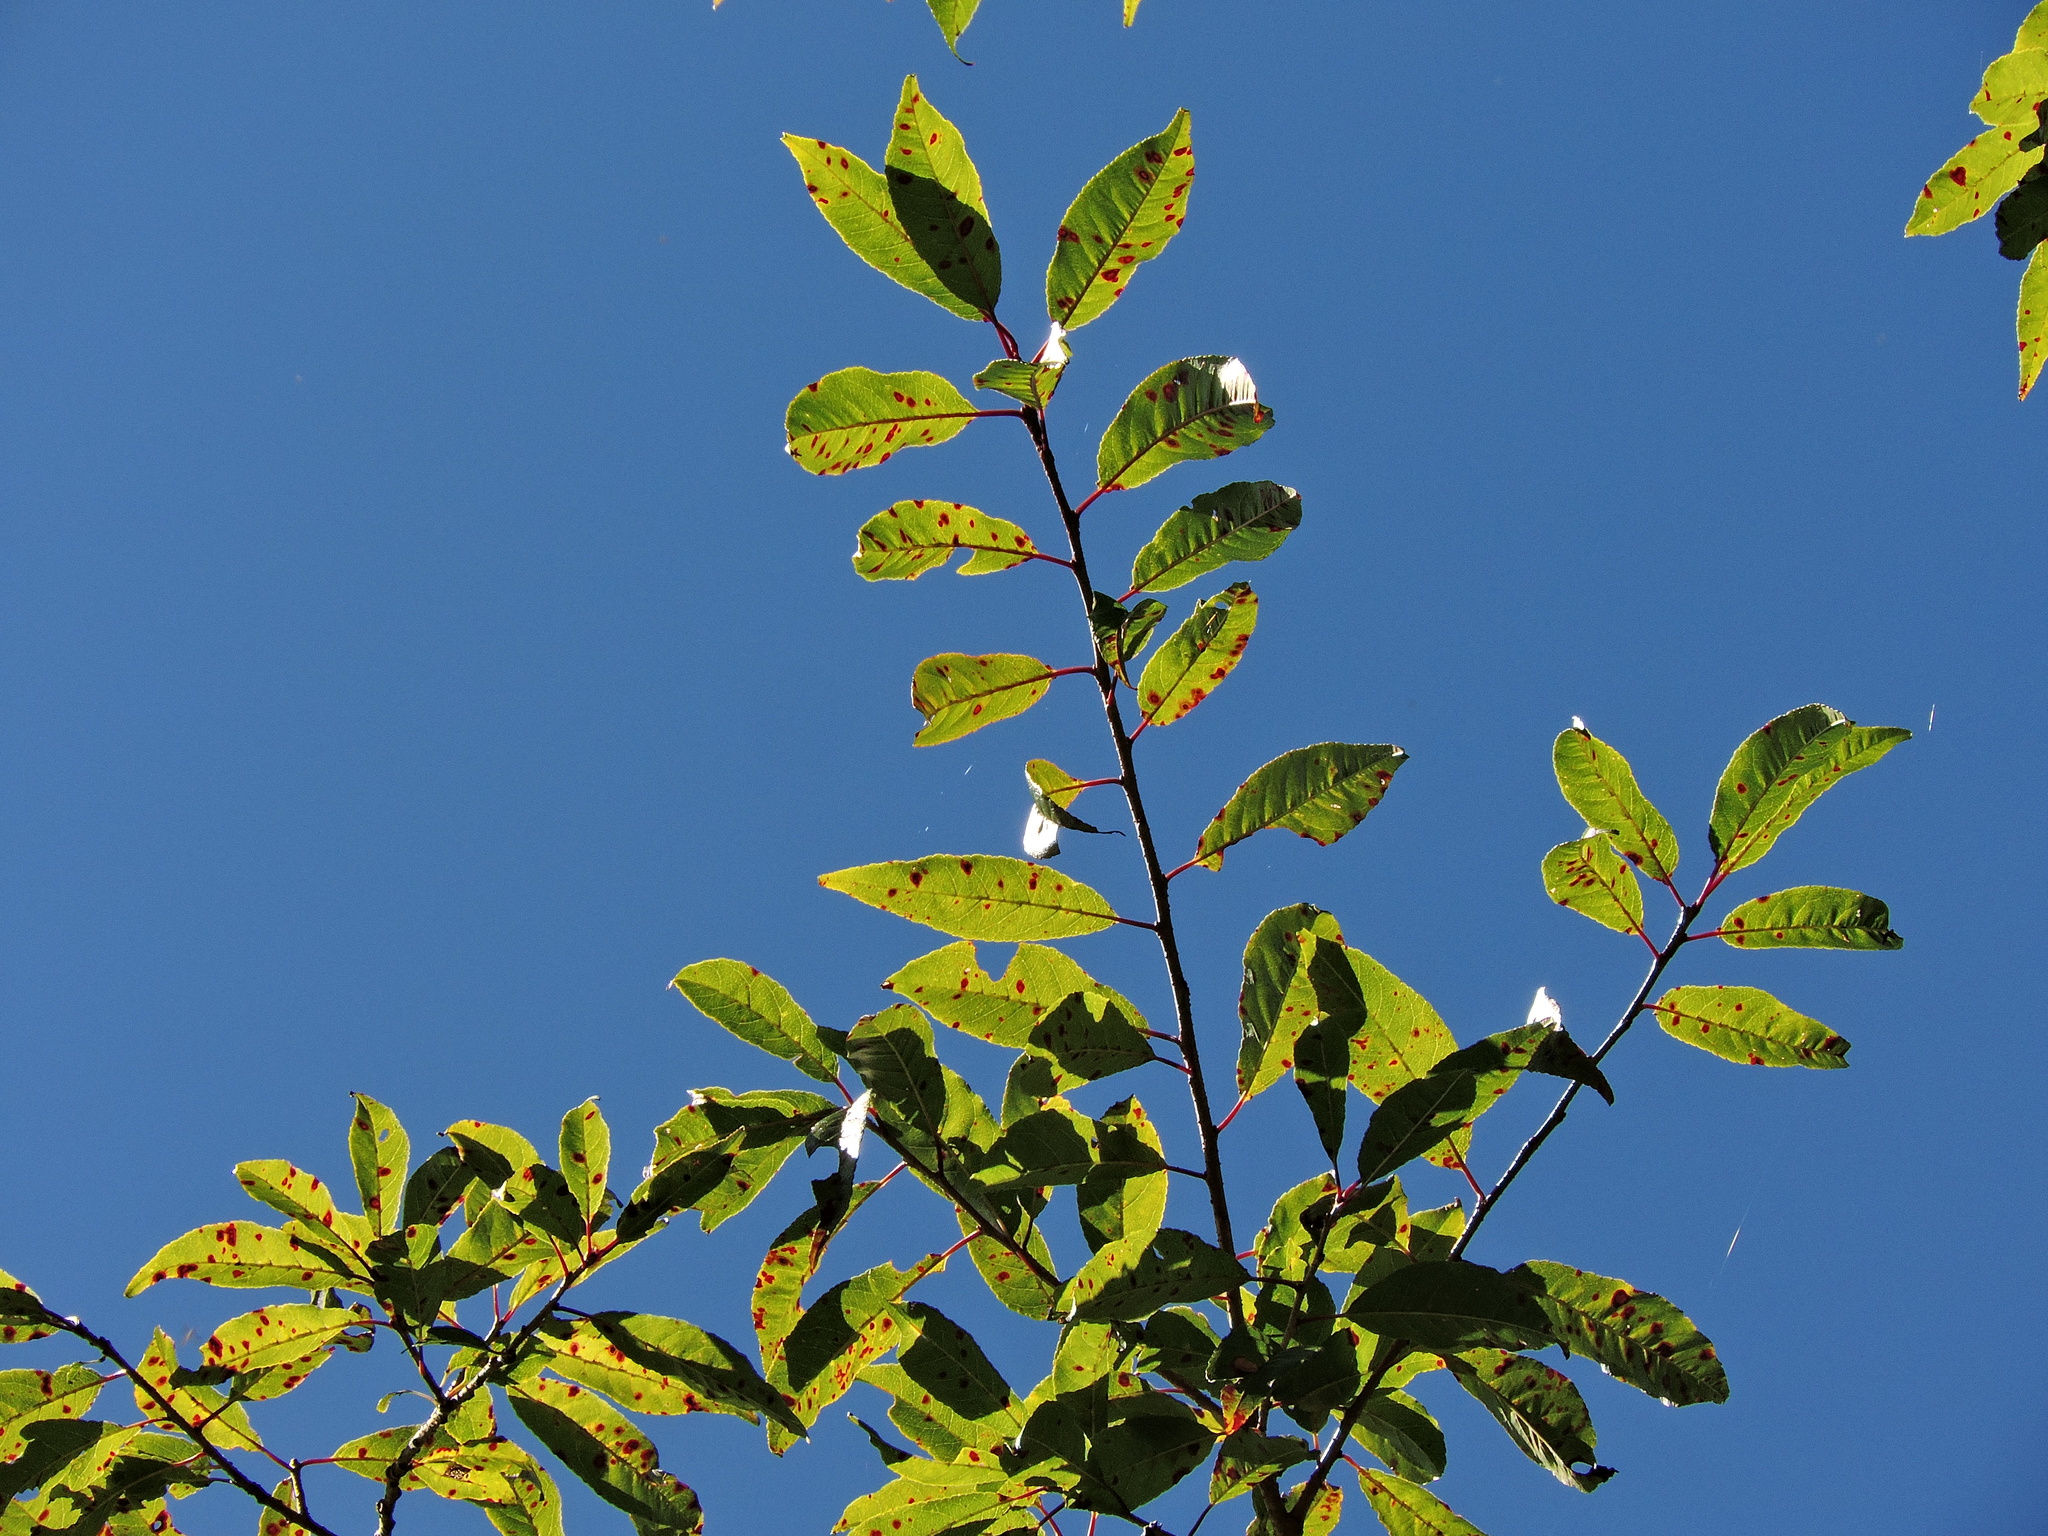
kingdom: Plantae
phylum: Tracheophyta
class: Magnoliopsida
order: Rosales
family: Rosaceae
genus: Prunus
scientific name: Prunus buergeriana
